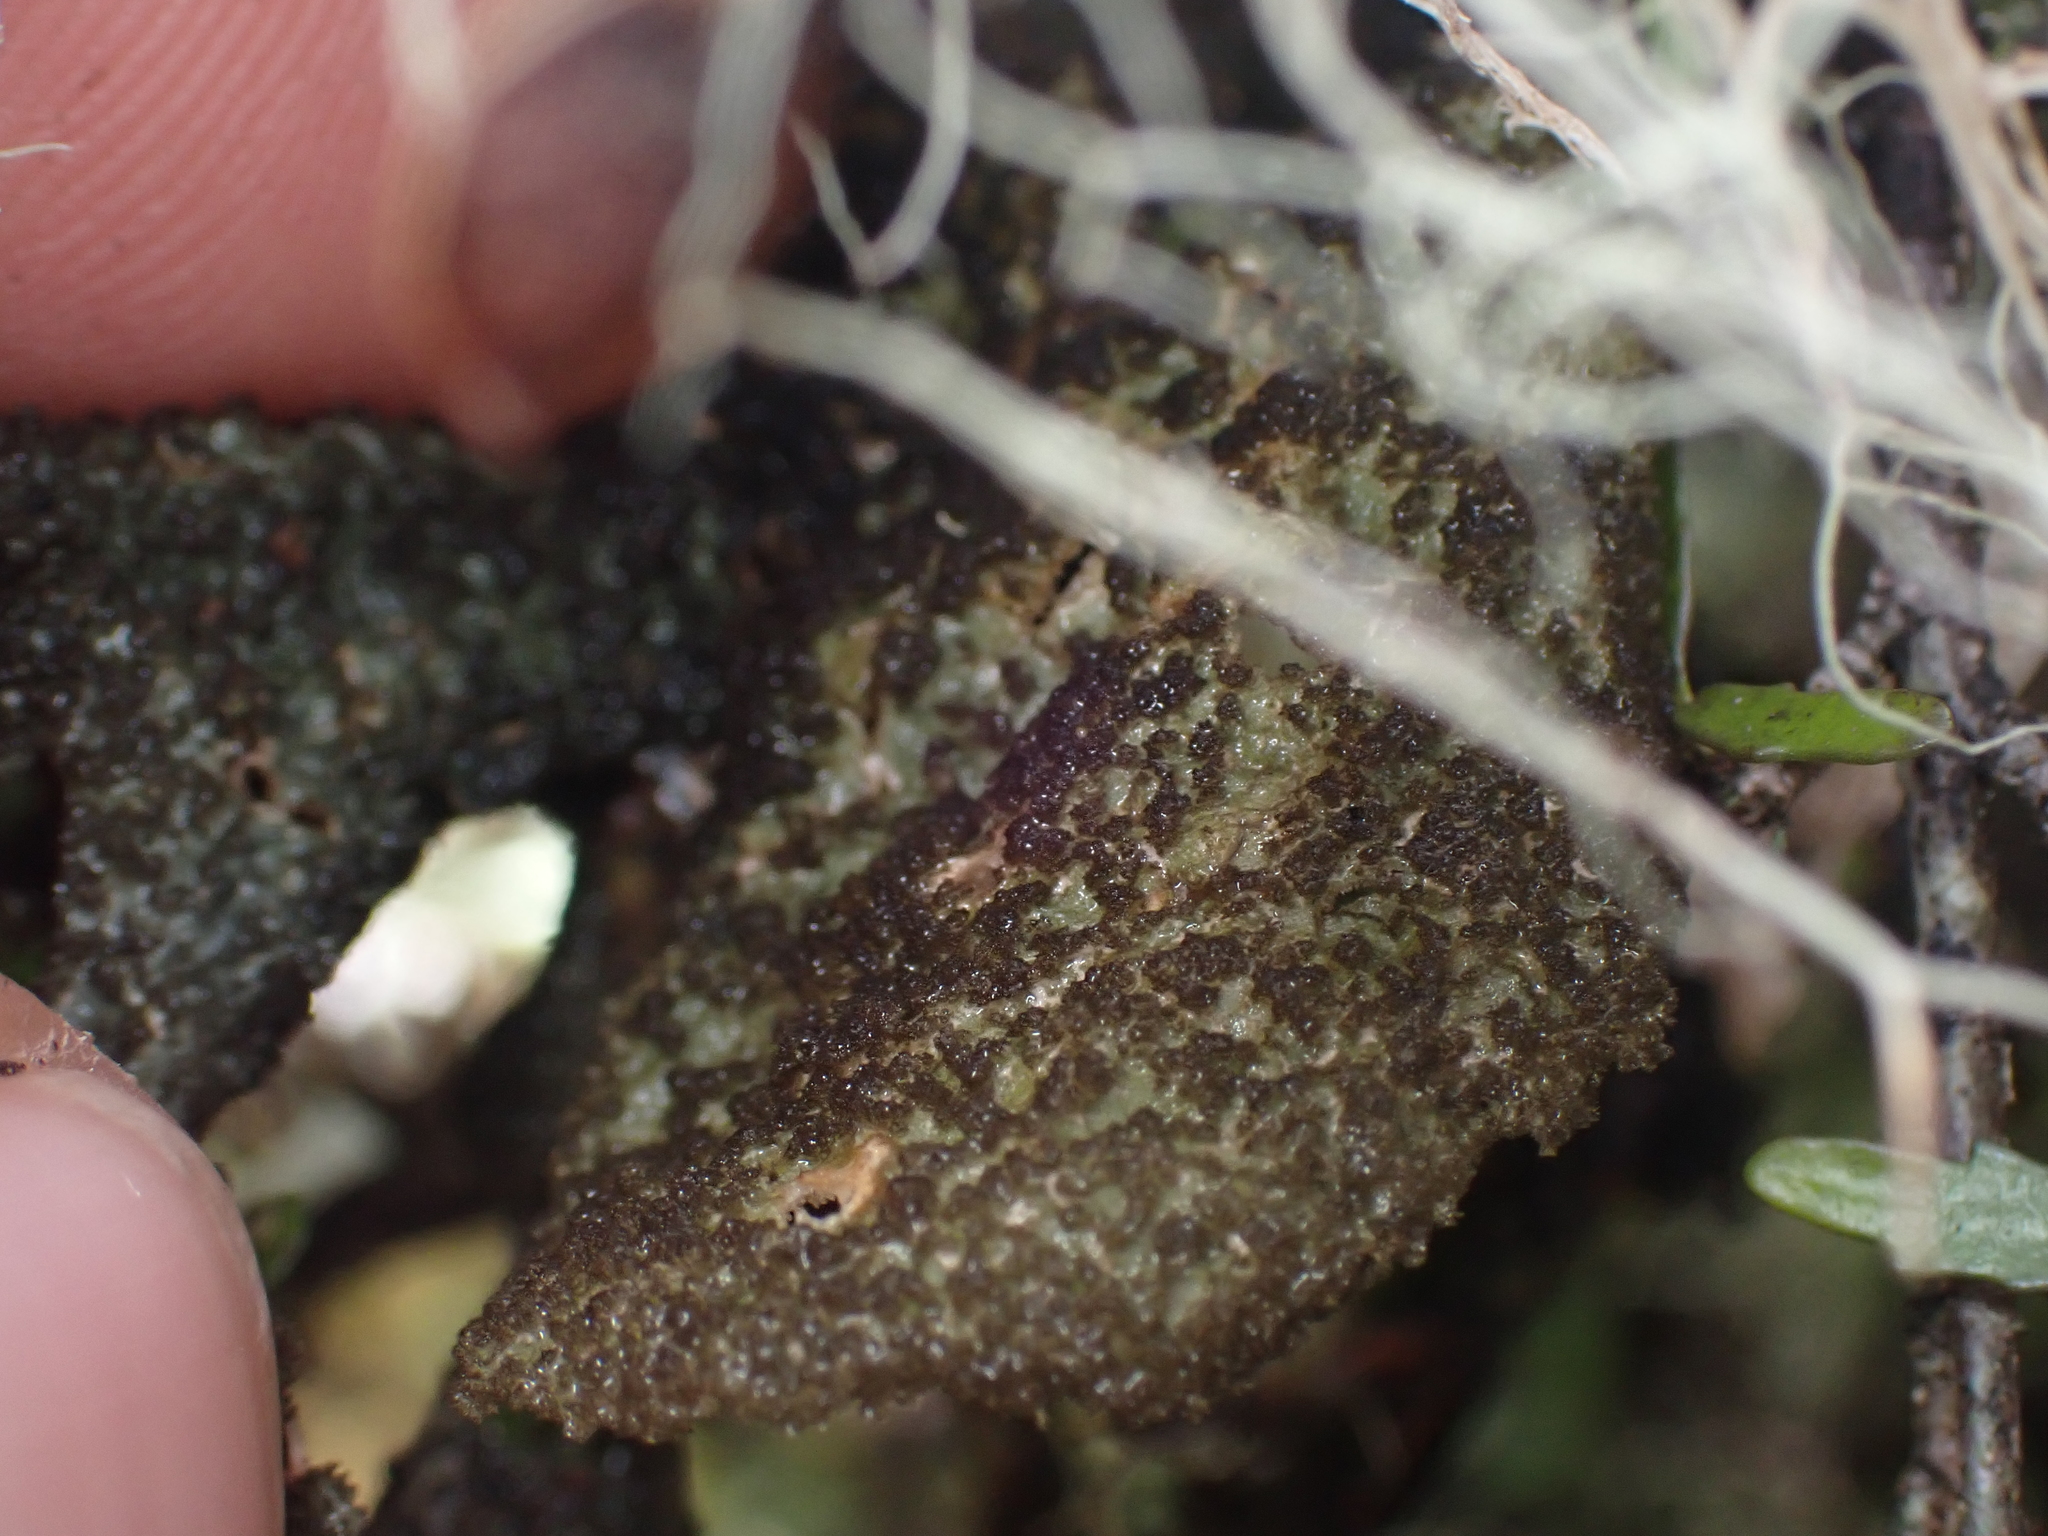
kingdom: Fungi
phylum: Ascomycota
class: Lecanoromycetes
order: Peltigerales
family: Lobariaceae
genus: Sticta
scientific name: Sticta limbata
